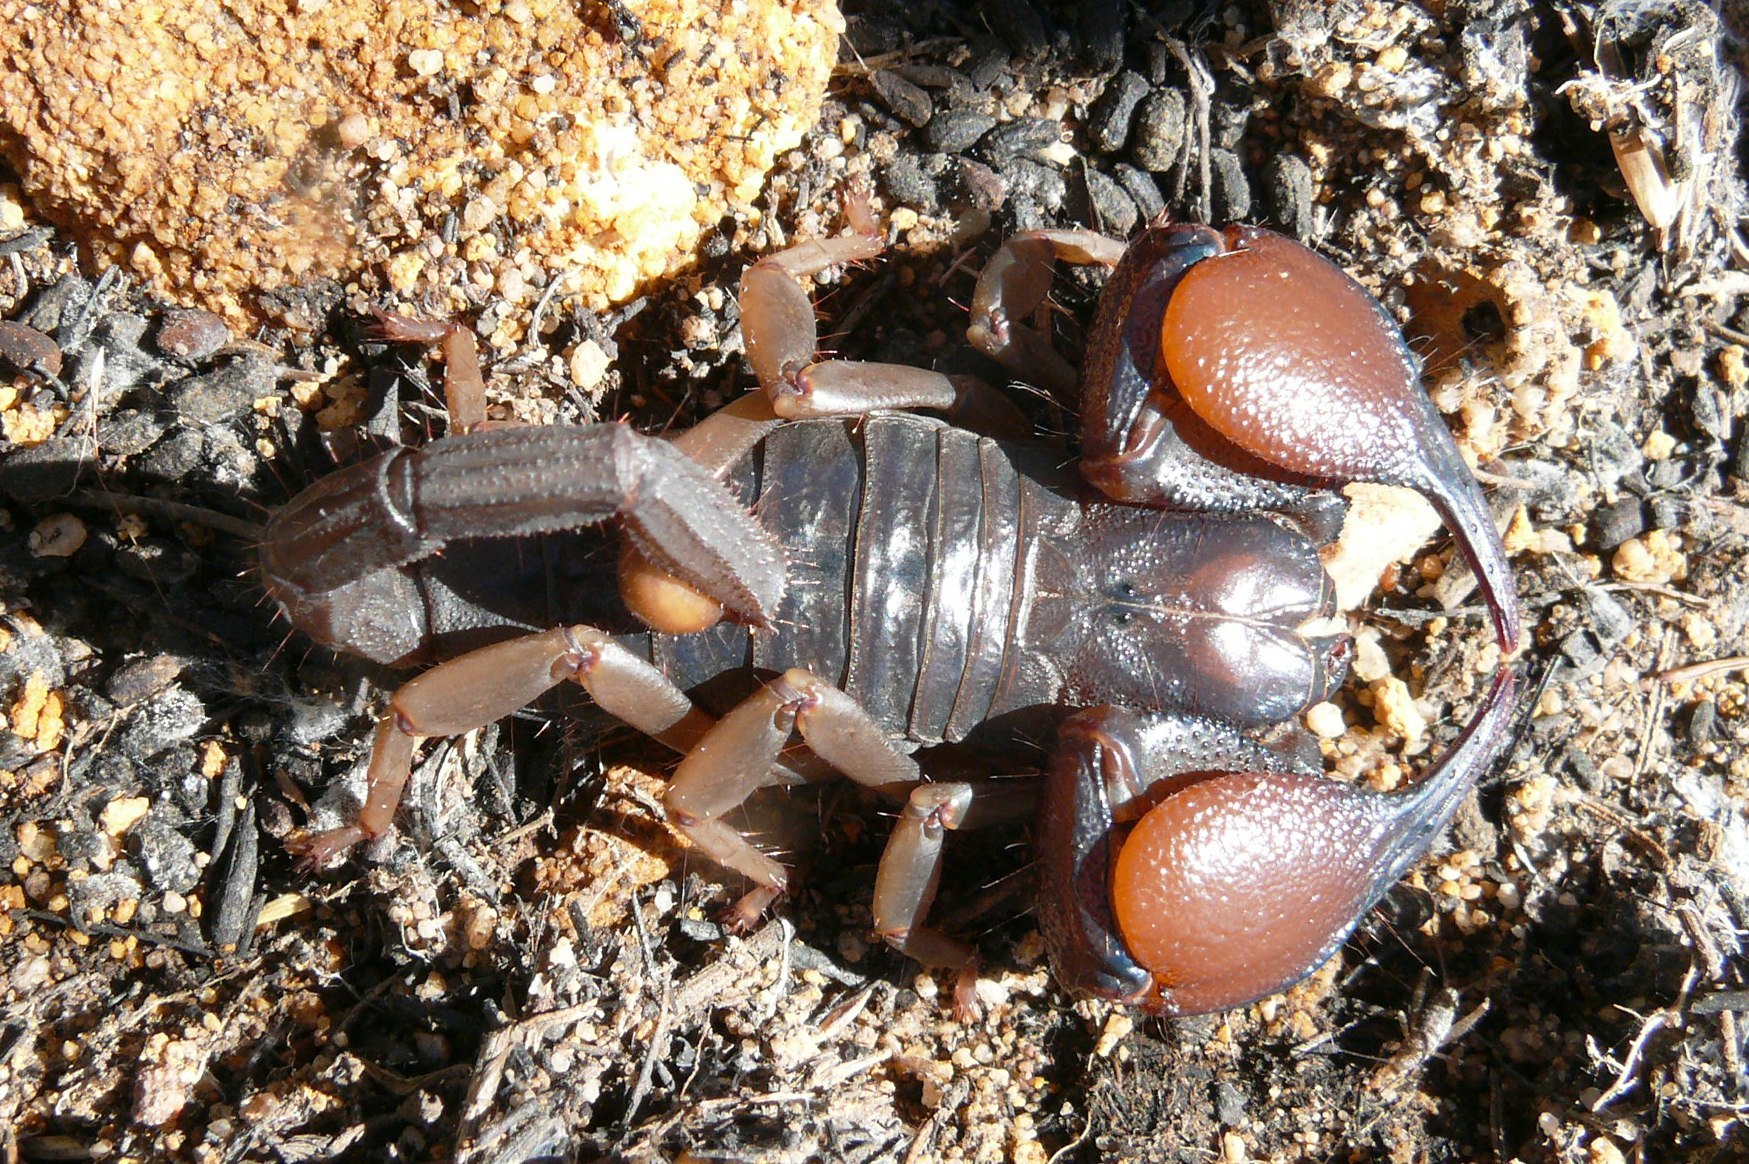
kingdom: Animalia
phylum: Arthropoda
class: Arachnida
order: Scorpiones
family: Scorpionidae
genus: Opistophthalmus
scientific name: Opistophthalmus peringueyi
